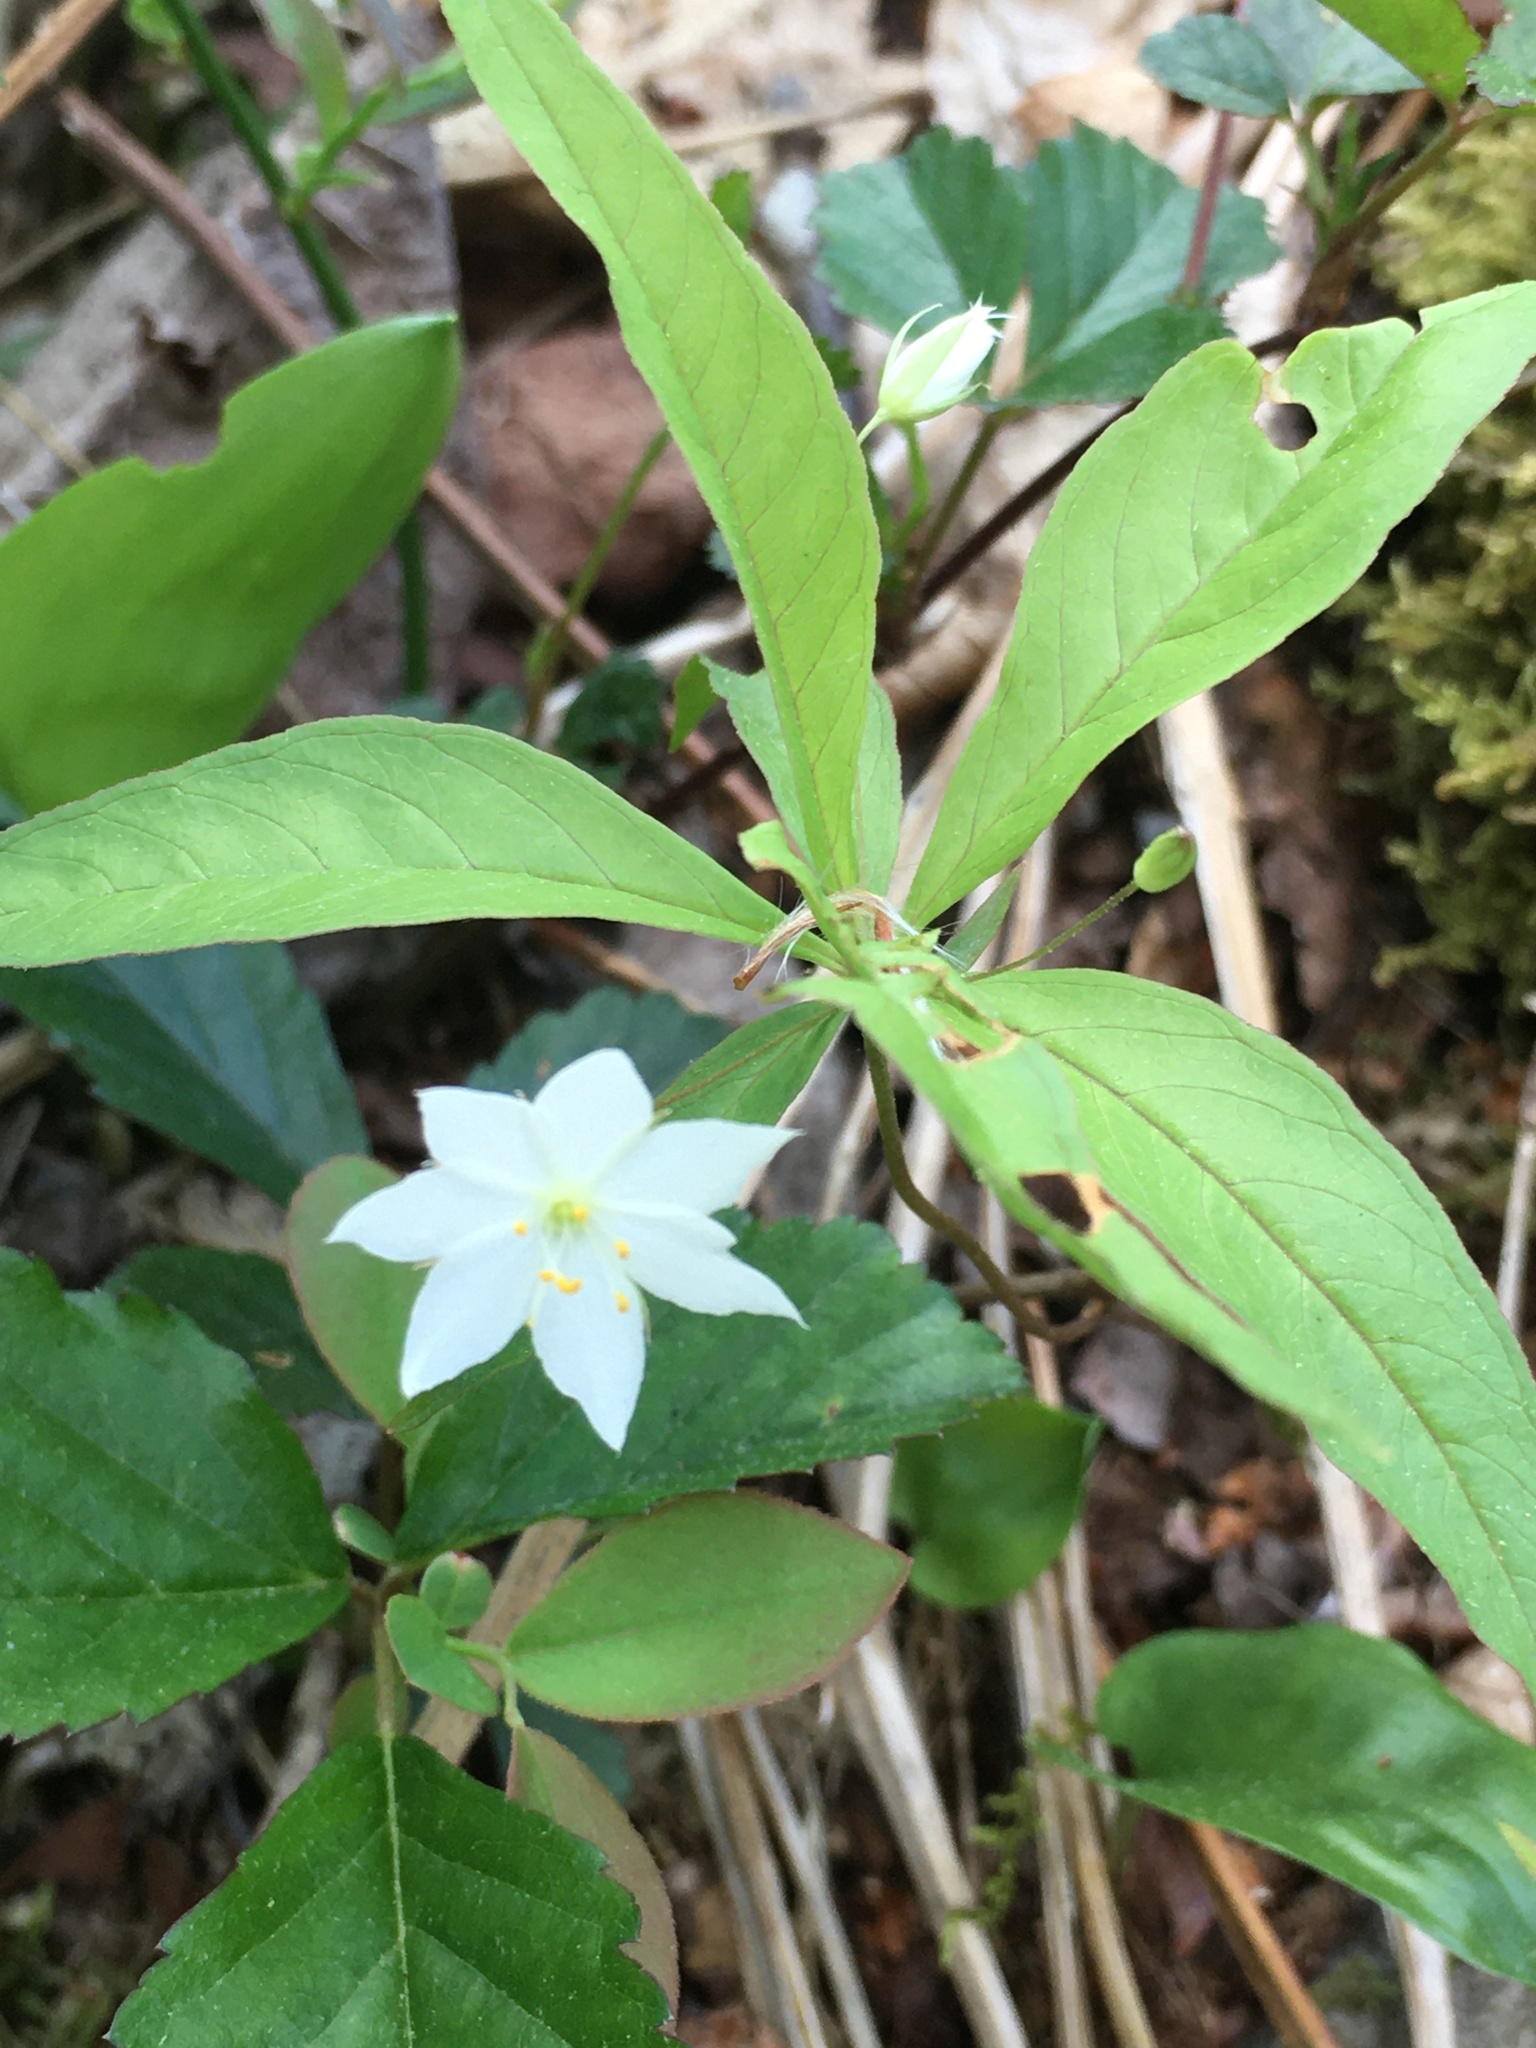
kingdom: Plantae
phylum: Tracheophyta
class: Magnoliopsida
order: Ericales
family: Primulaceae
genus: Lysimachia
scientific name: Lysimachia borealis
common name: American starflower
